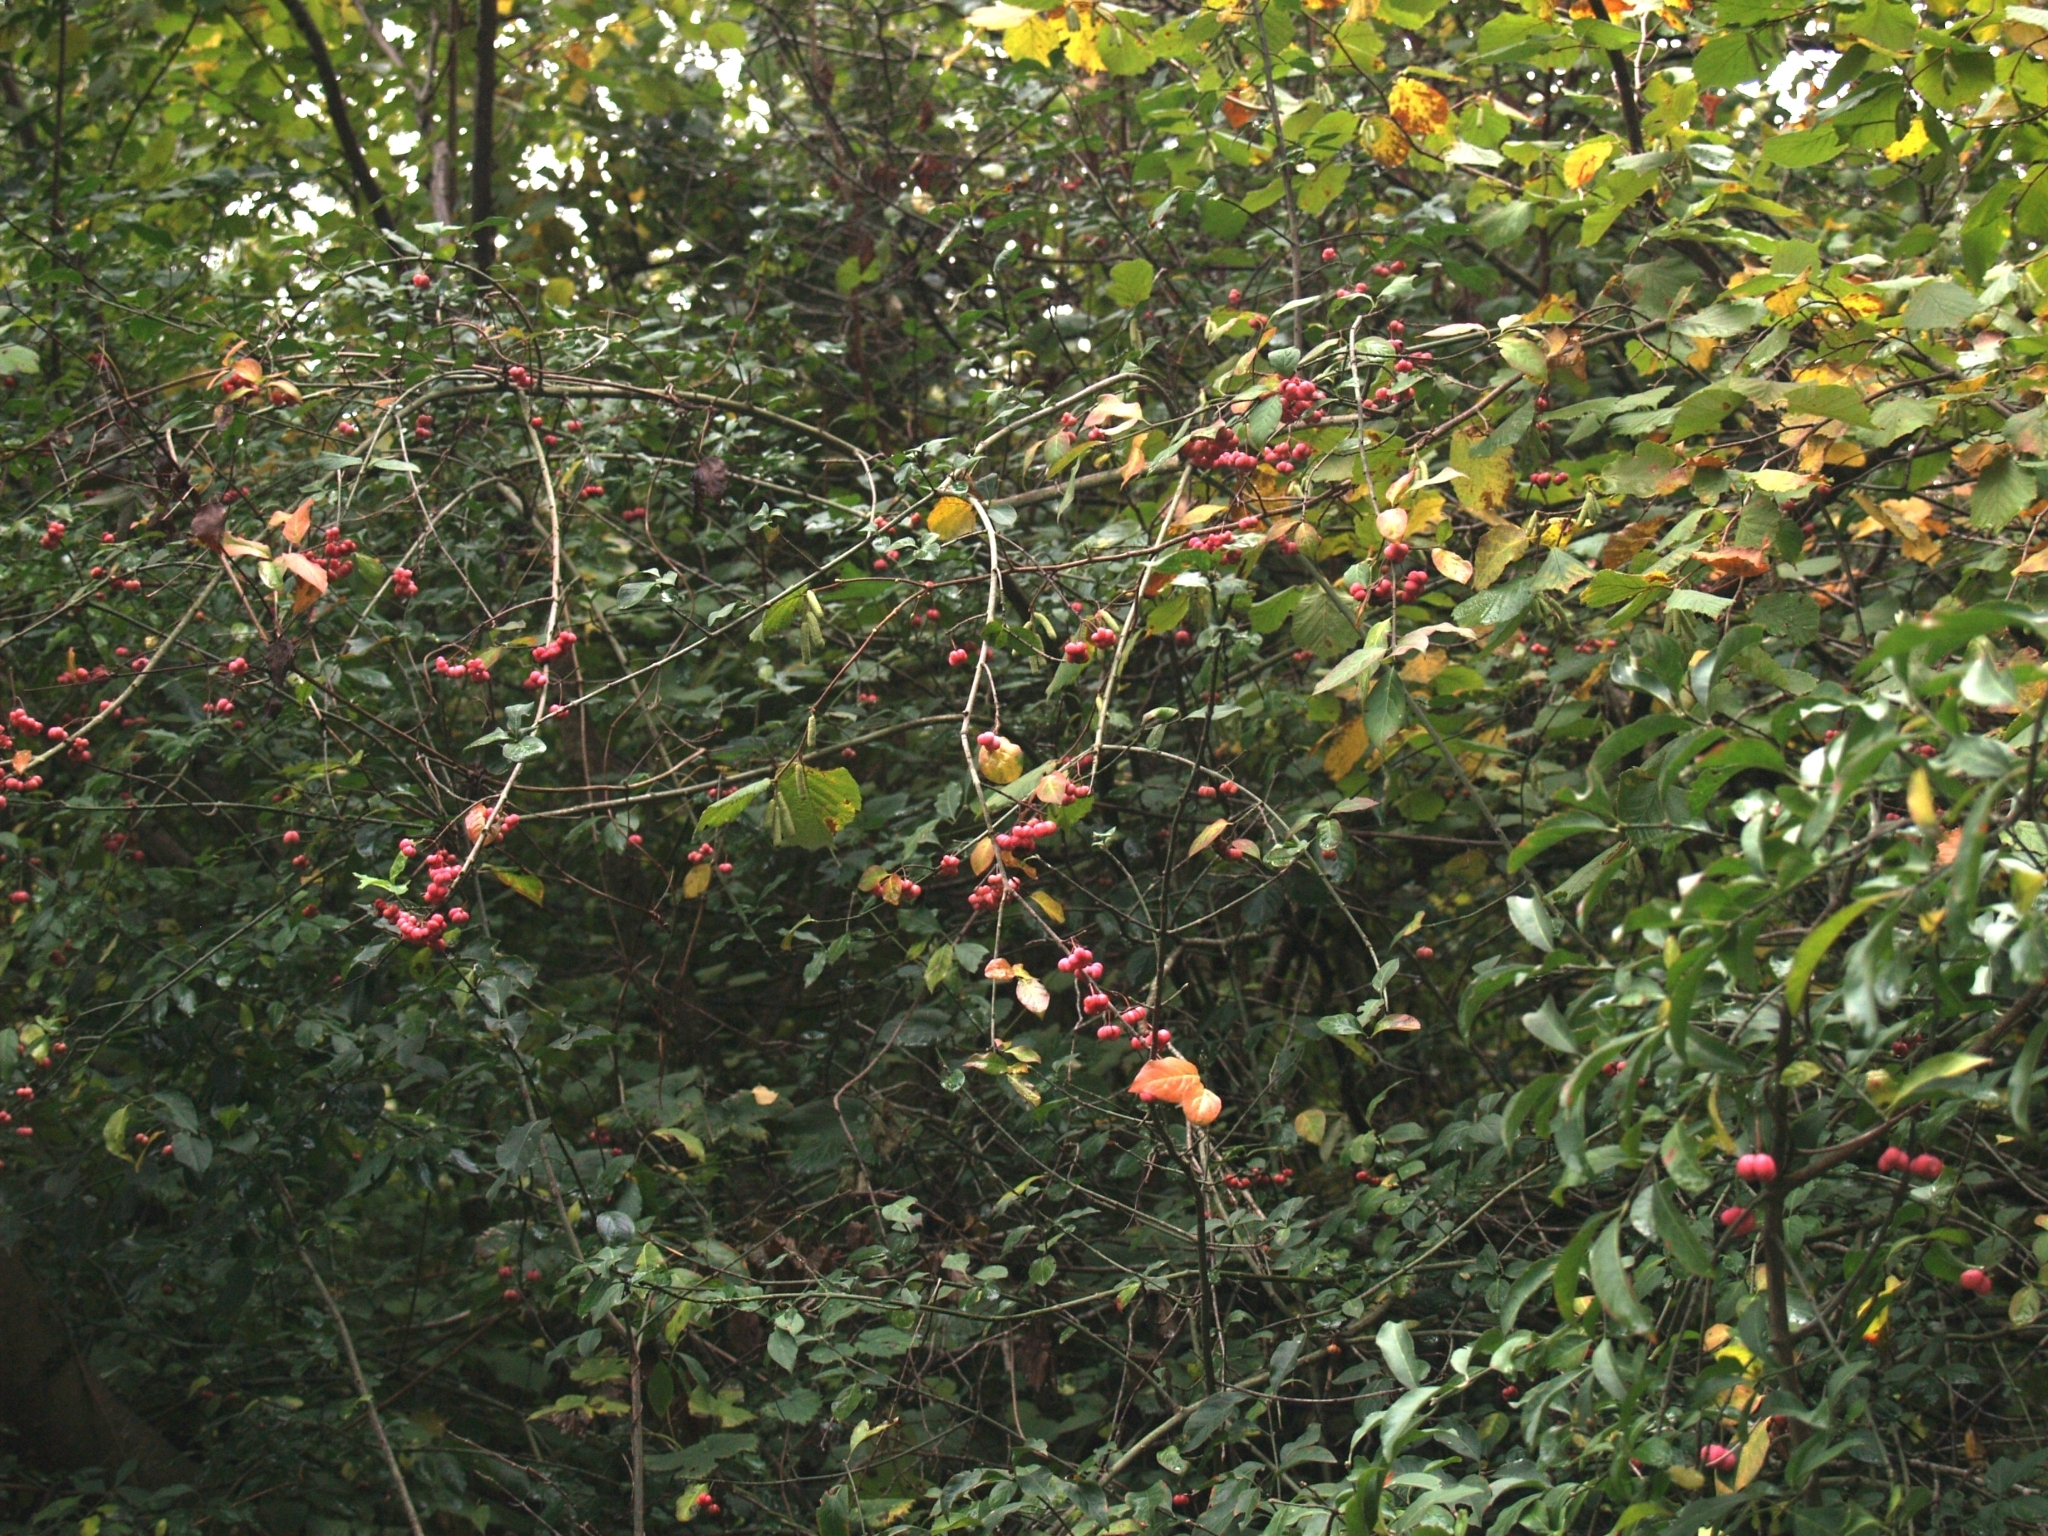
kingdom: Plantae
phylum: Tracheophyta
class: Magnoliopsida
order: Celastrales
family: Celastraceae
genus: Euonymus
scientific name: Euonymus europaeus
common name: Spindle
